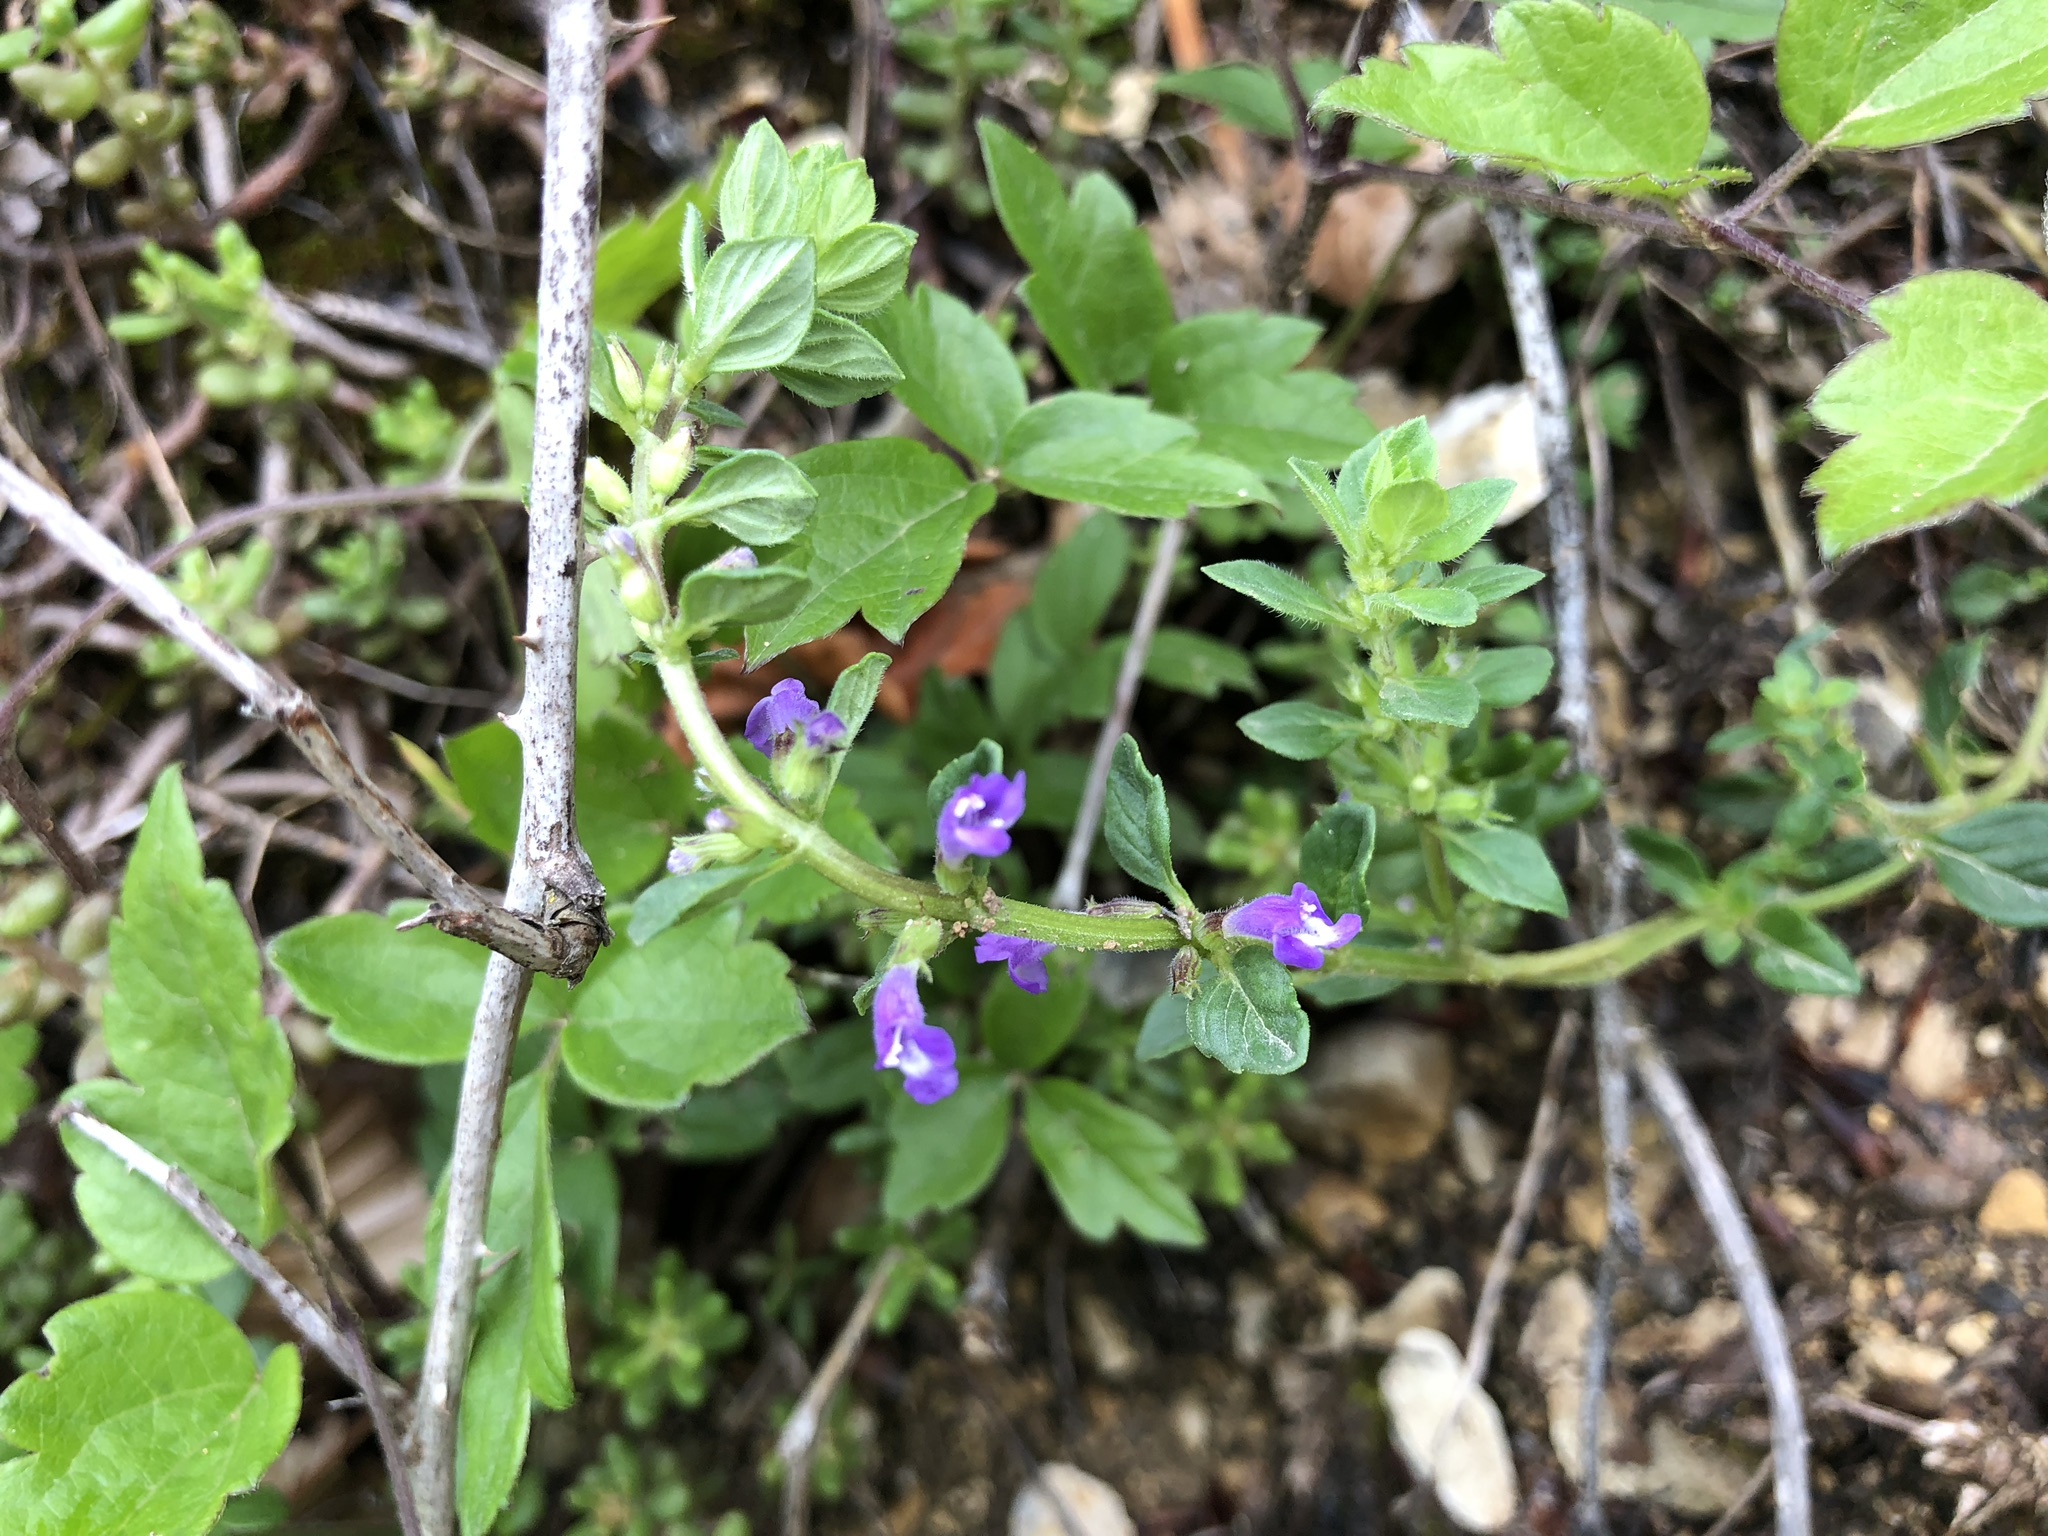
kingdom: Plantae
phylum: Tracheophyta
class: Magnoliopsida
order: Lamiales
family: Lamiaceae
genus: Clinopodium
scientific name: Clinopodium acinos
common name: Basil thyme
